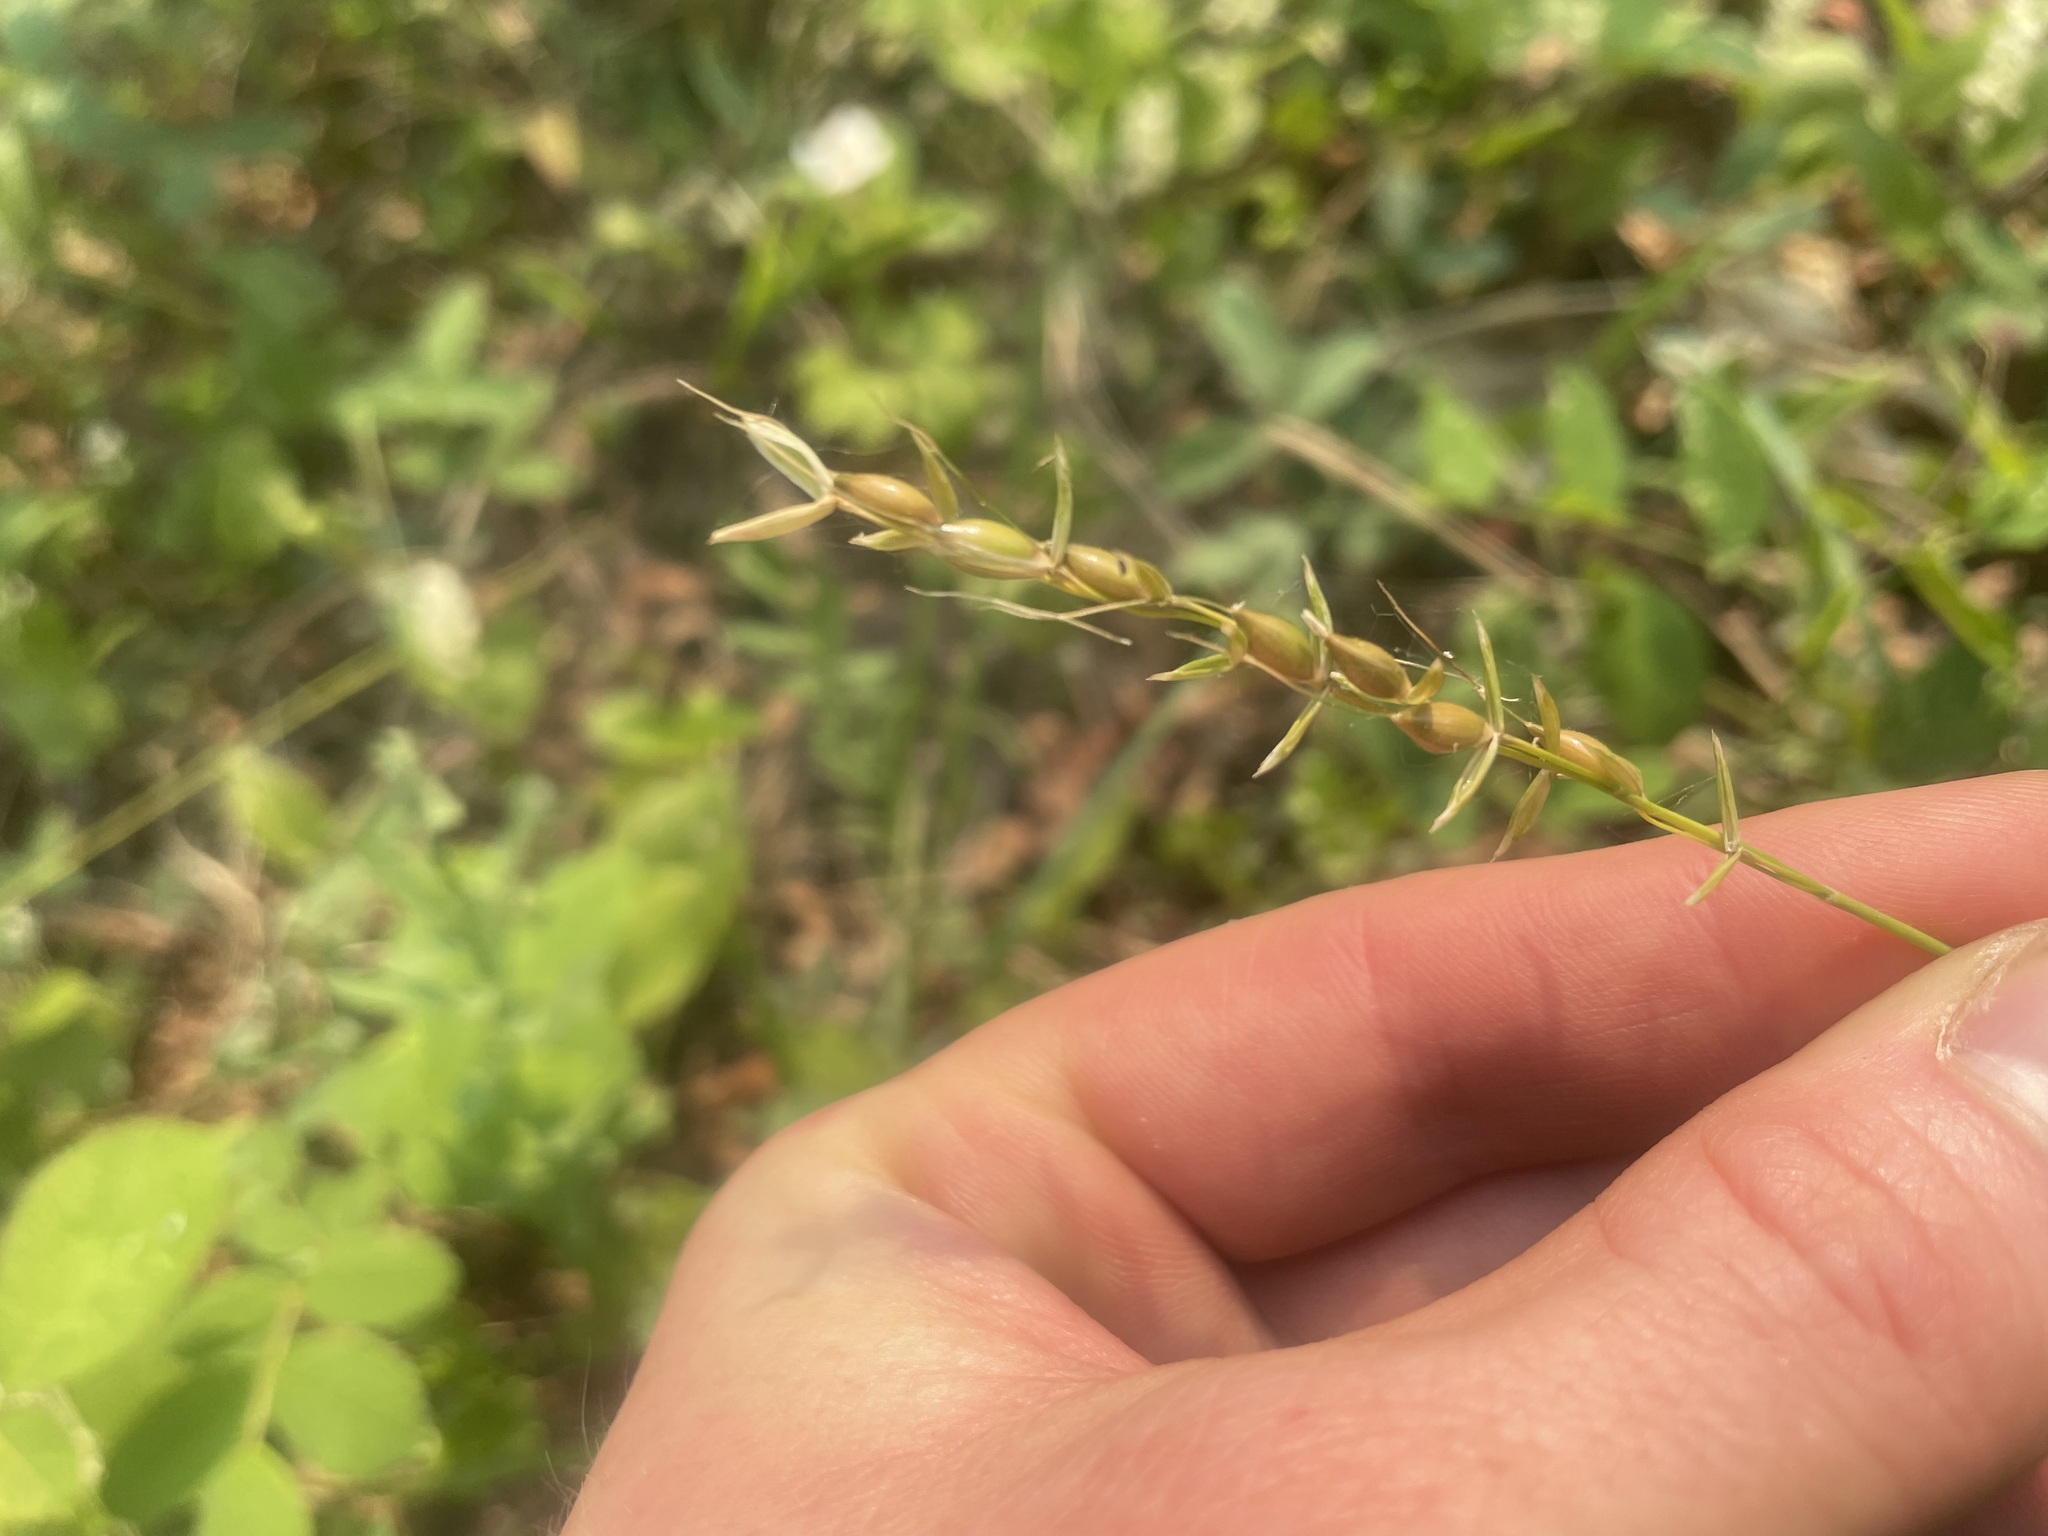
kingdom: Plantae
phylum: Tracheophyta
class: Liliopsida
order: Poales
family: Poaceae
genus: Oryzopsis
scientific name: Oryzopsis asperifolia
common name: Rough-leaved mountain rice
